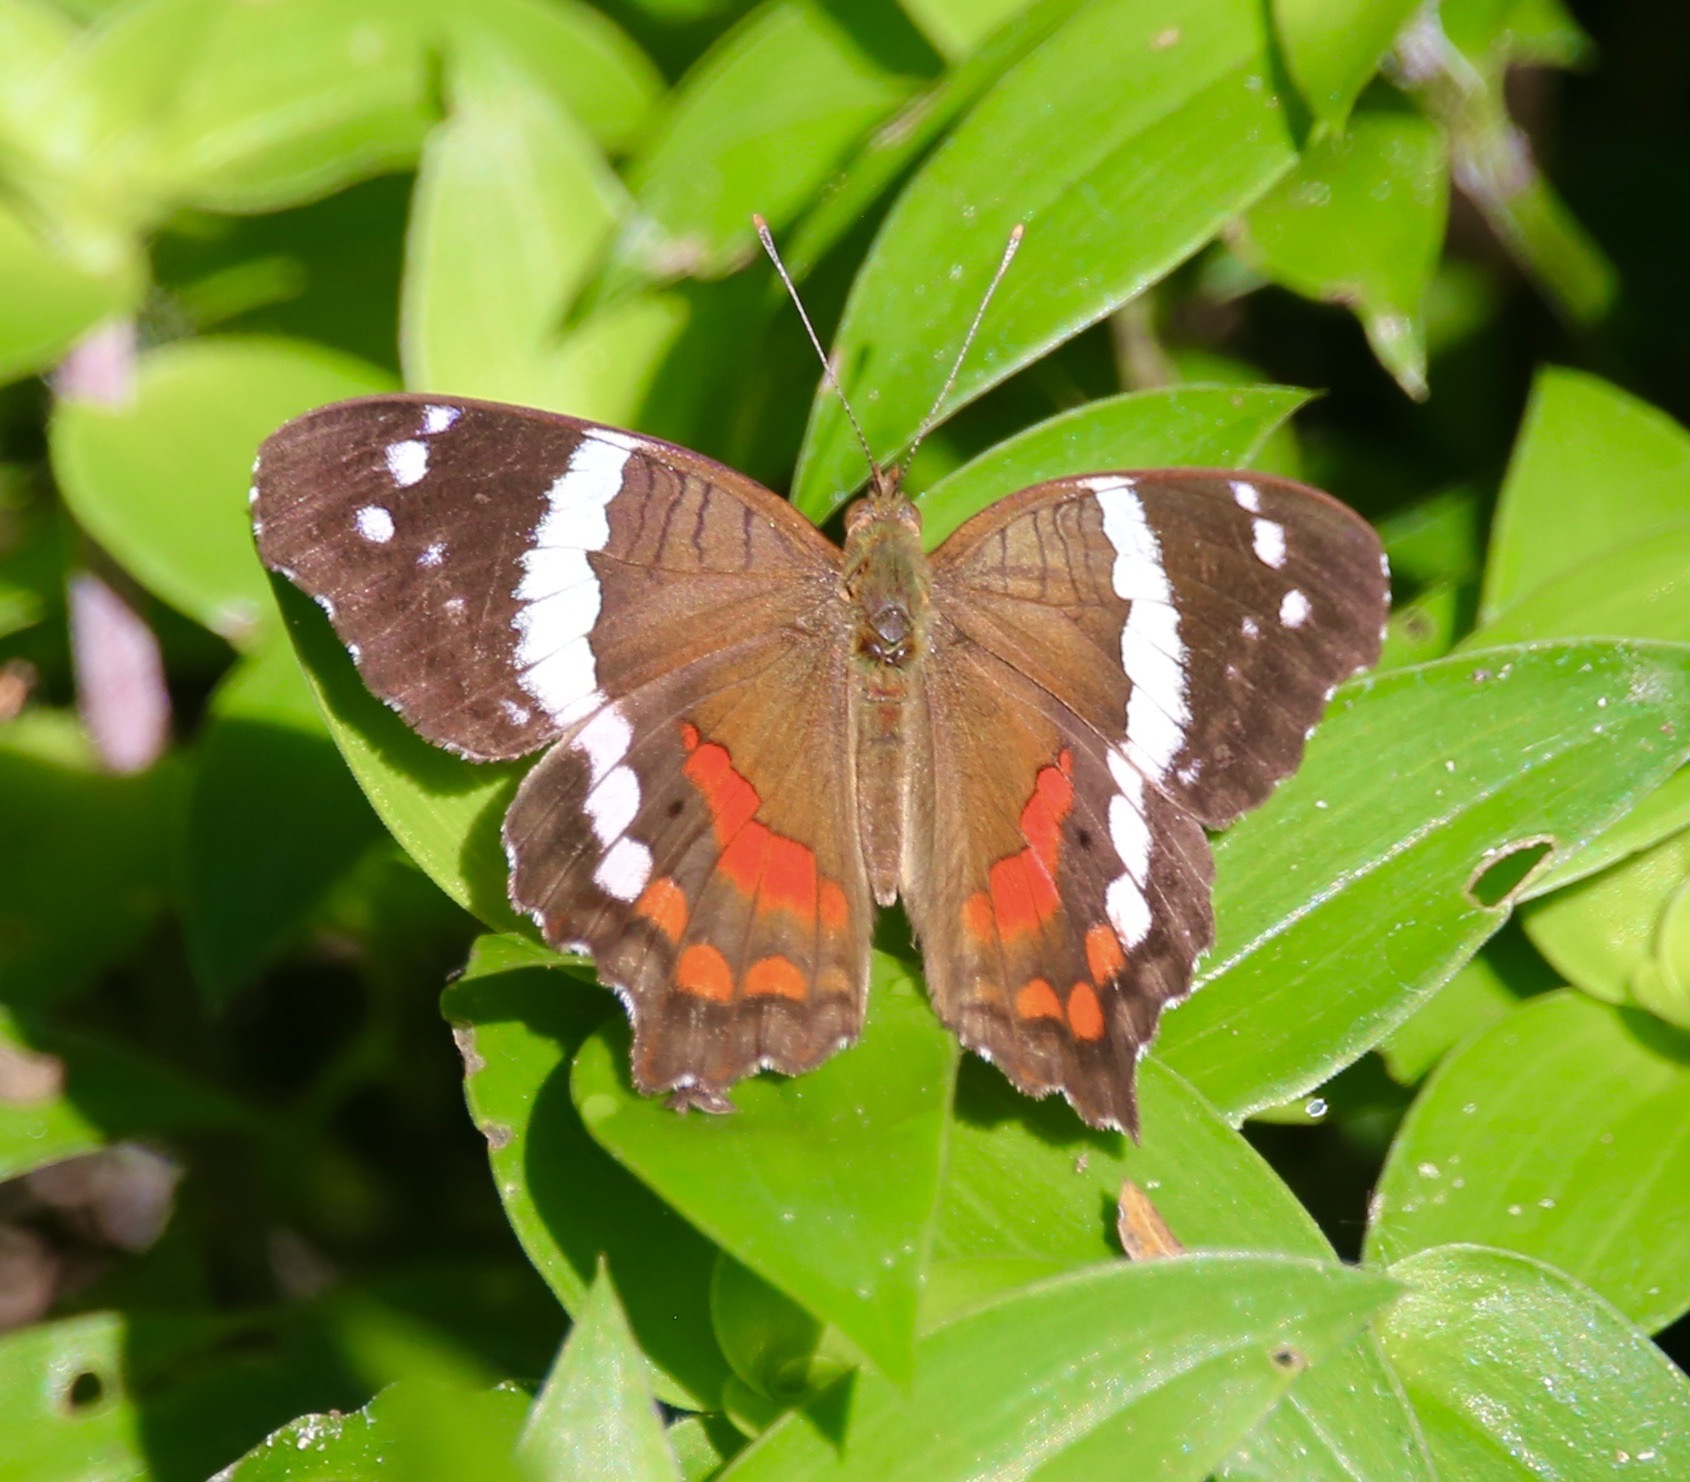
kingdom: Animalia
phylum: Arthropoda
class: Insecta
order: Lepidoptera
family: Nymphalidae
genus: Anartia
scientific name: Anartia fatima
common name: Banded peacock
